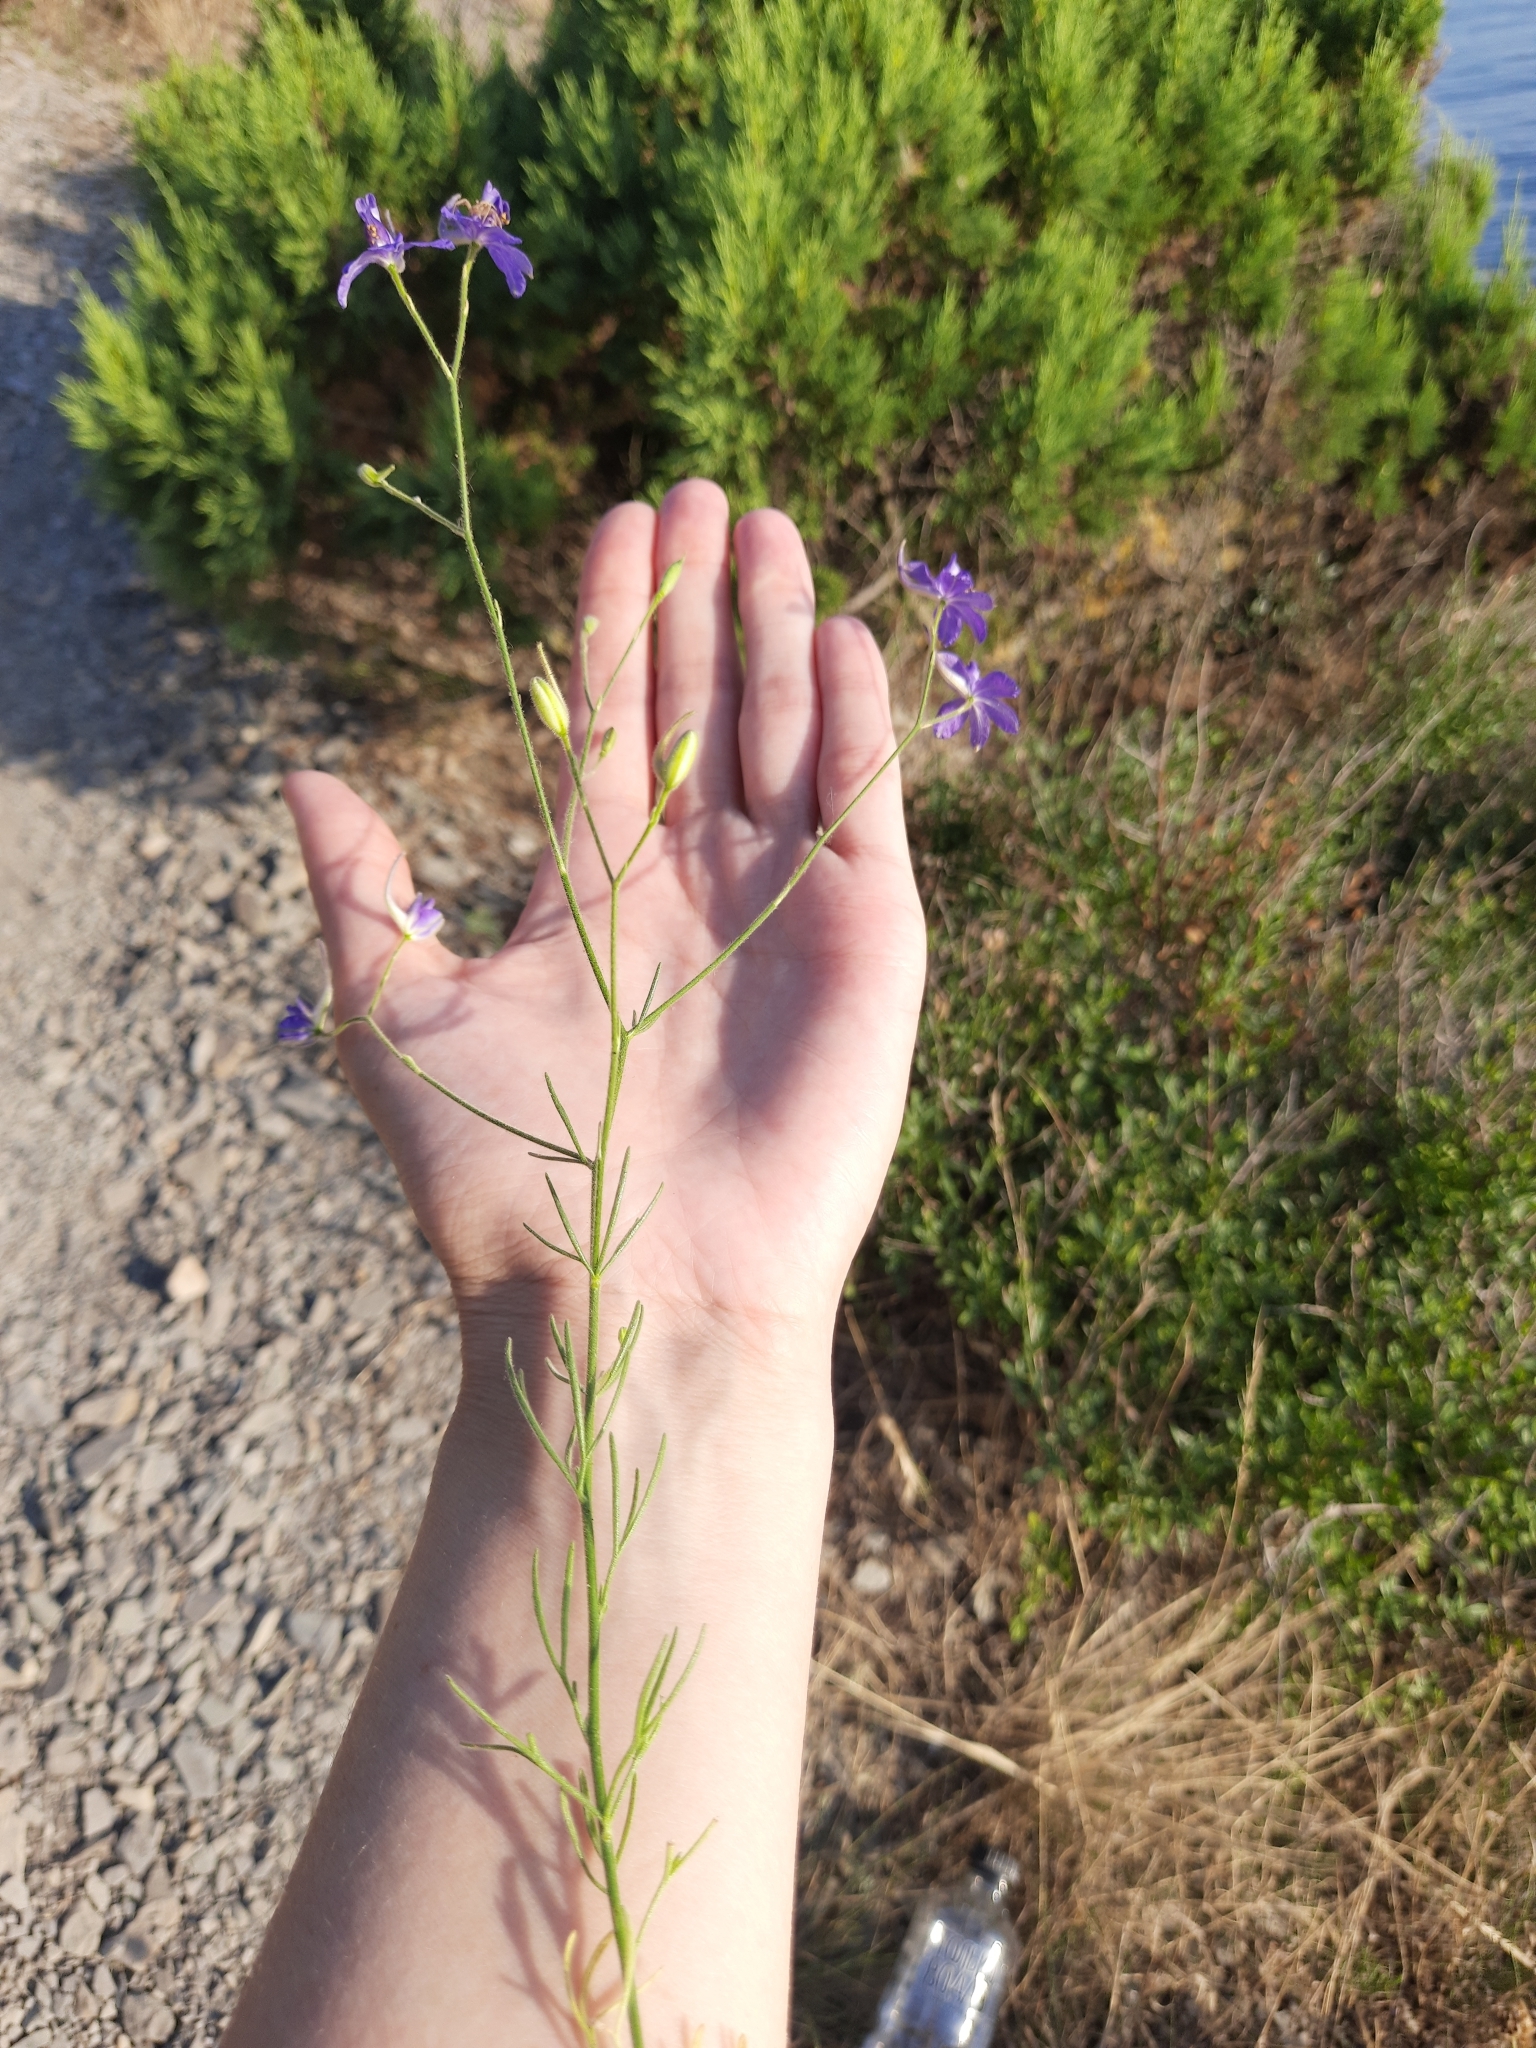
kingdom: Plantae
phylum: Tracheophyta
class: Magnoliopsida
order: Ranunculales
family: Ranunculaceae
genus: Delphinium
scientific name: Delphinium consolida
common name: Branching larkspur
